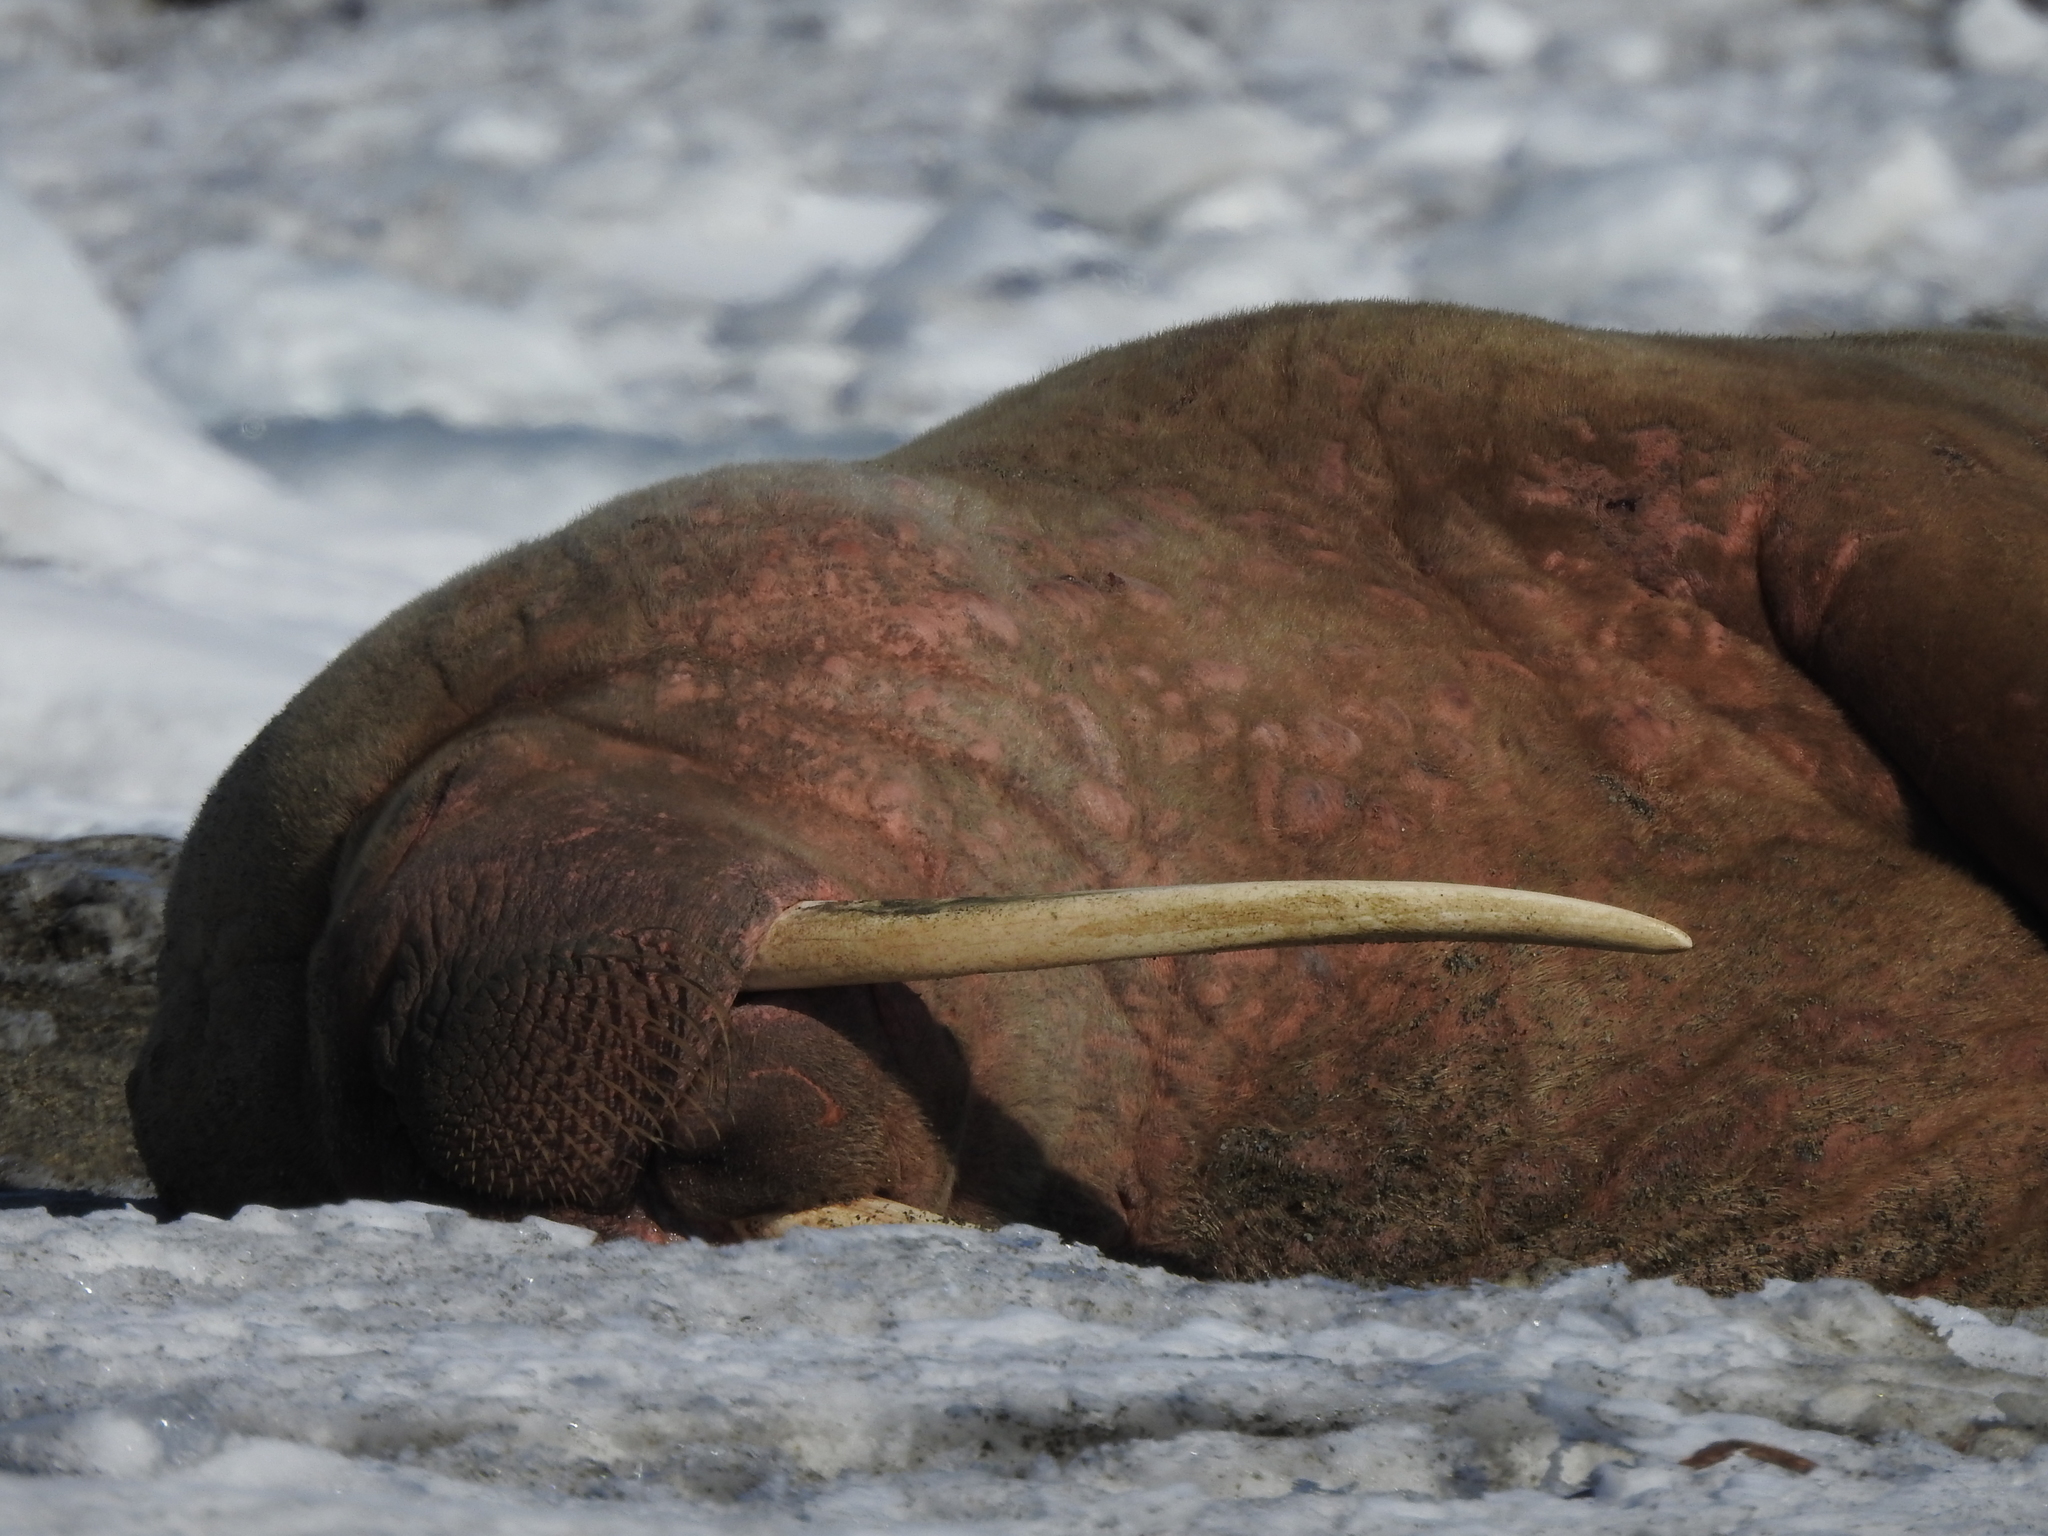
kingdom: Animalia
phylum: Chordata
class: Mammalia
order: Carnivora
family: Odobenidae
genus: Odobenus
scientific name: Odobenus rosmarus
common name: Walrus
